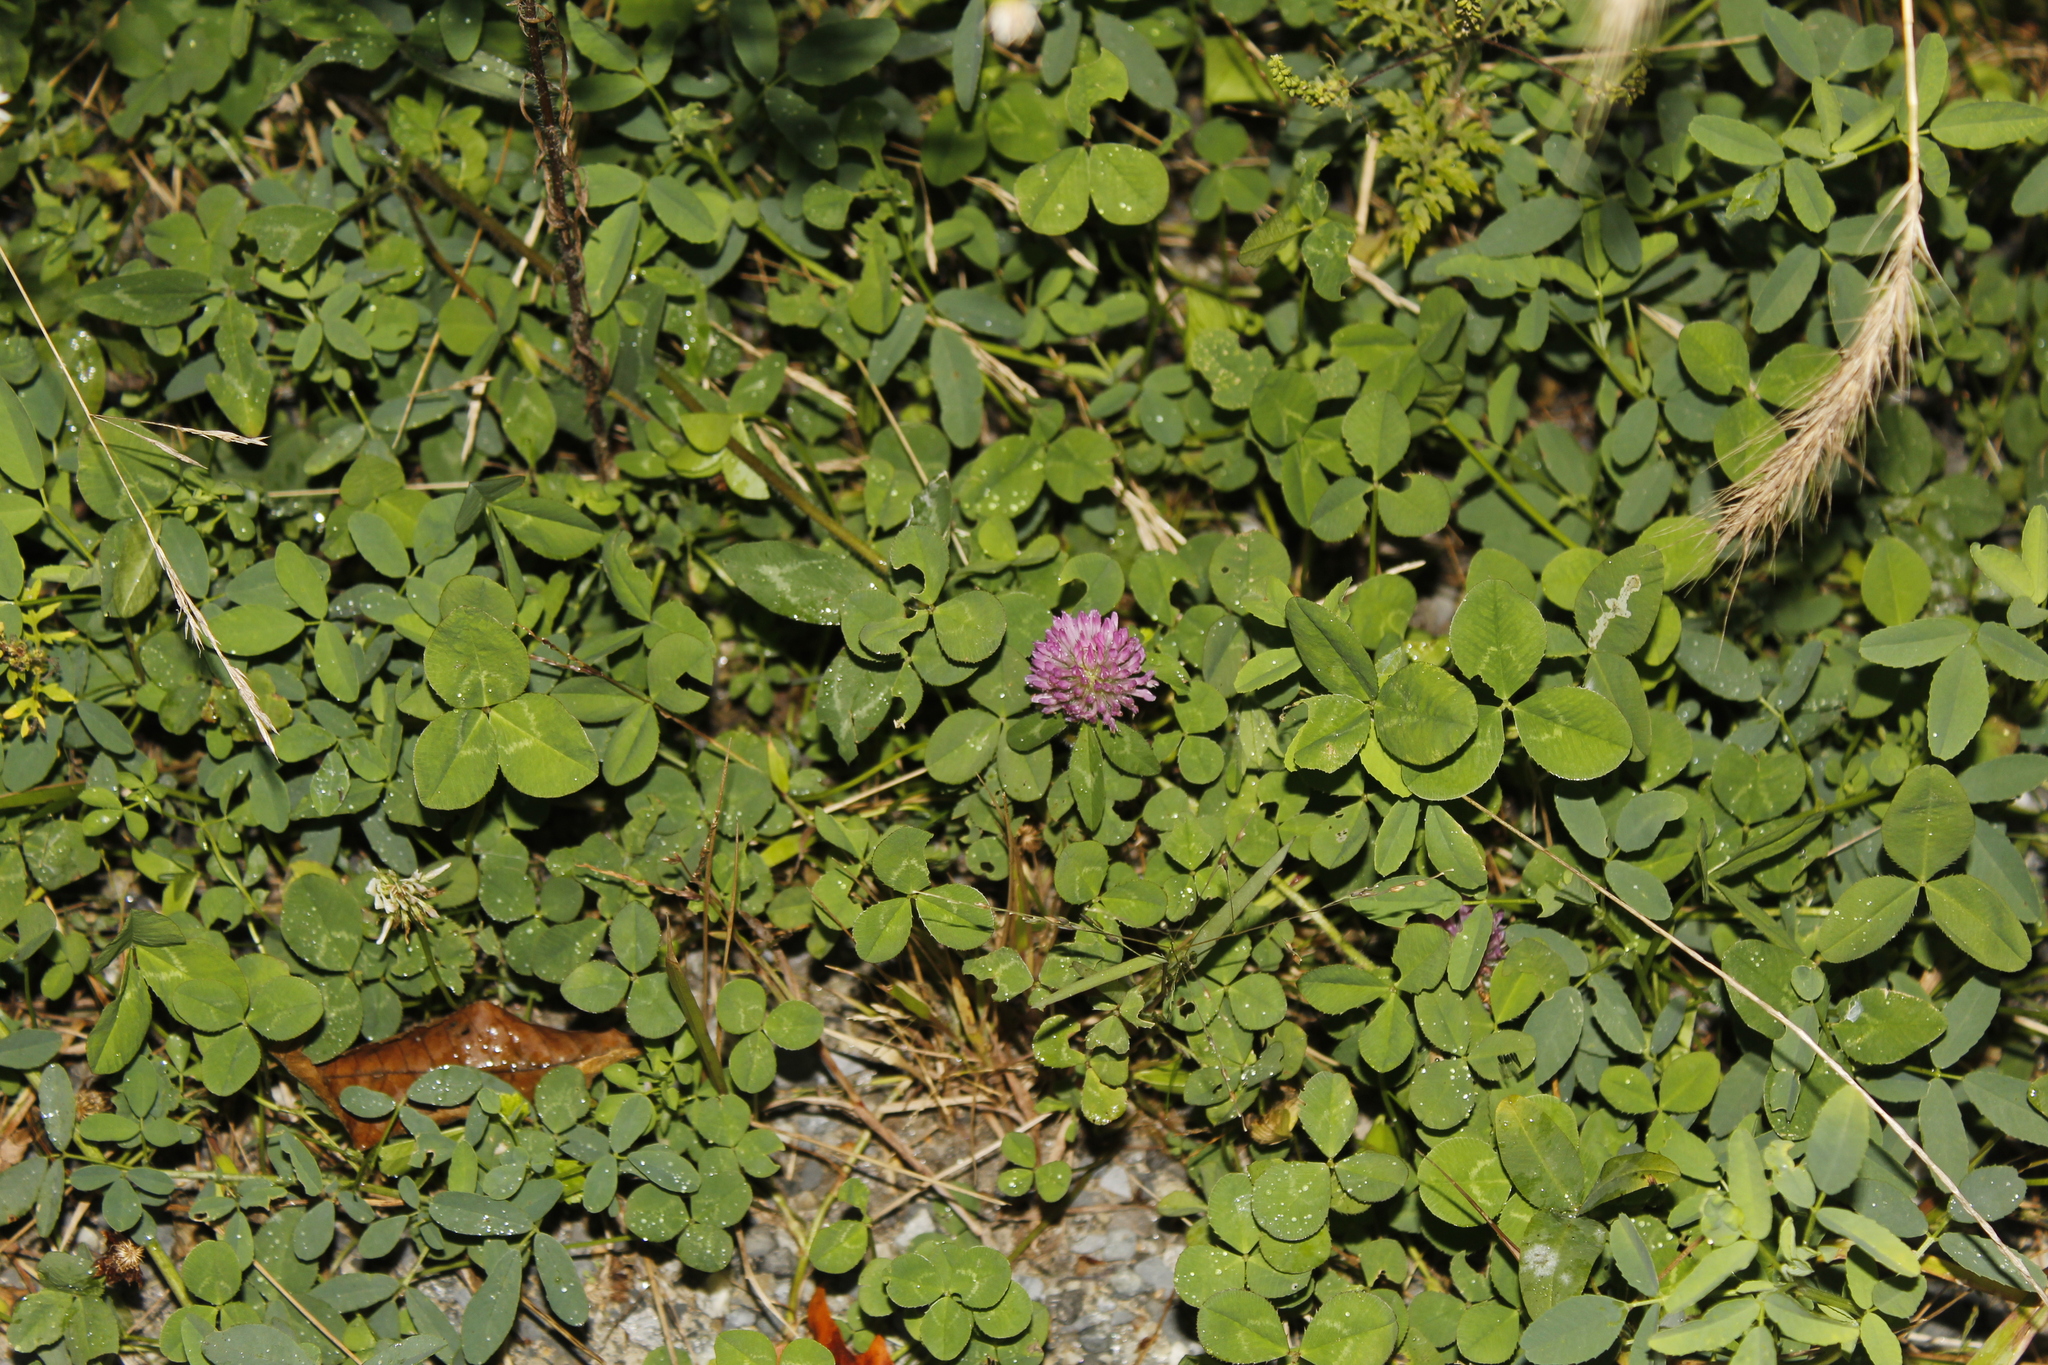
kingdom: Plantae
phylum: Tracheophyta
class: Magnoliopsida
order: Fabales
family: Fabaceae
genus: Trifolium
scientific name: Trifolium pratense
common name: Red clover
